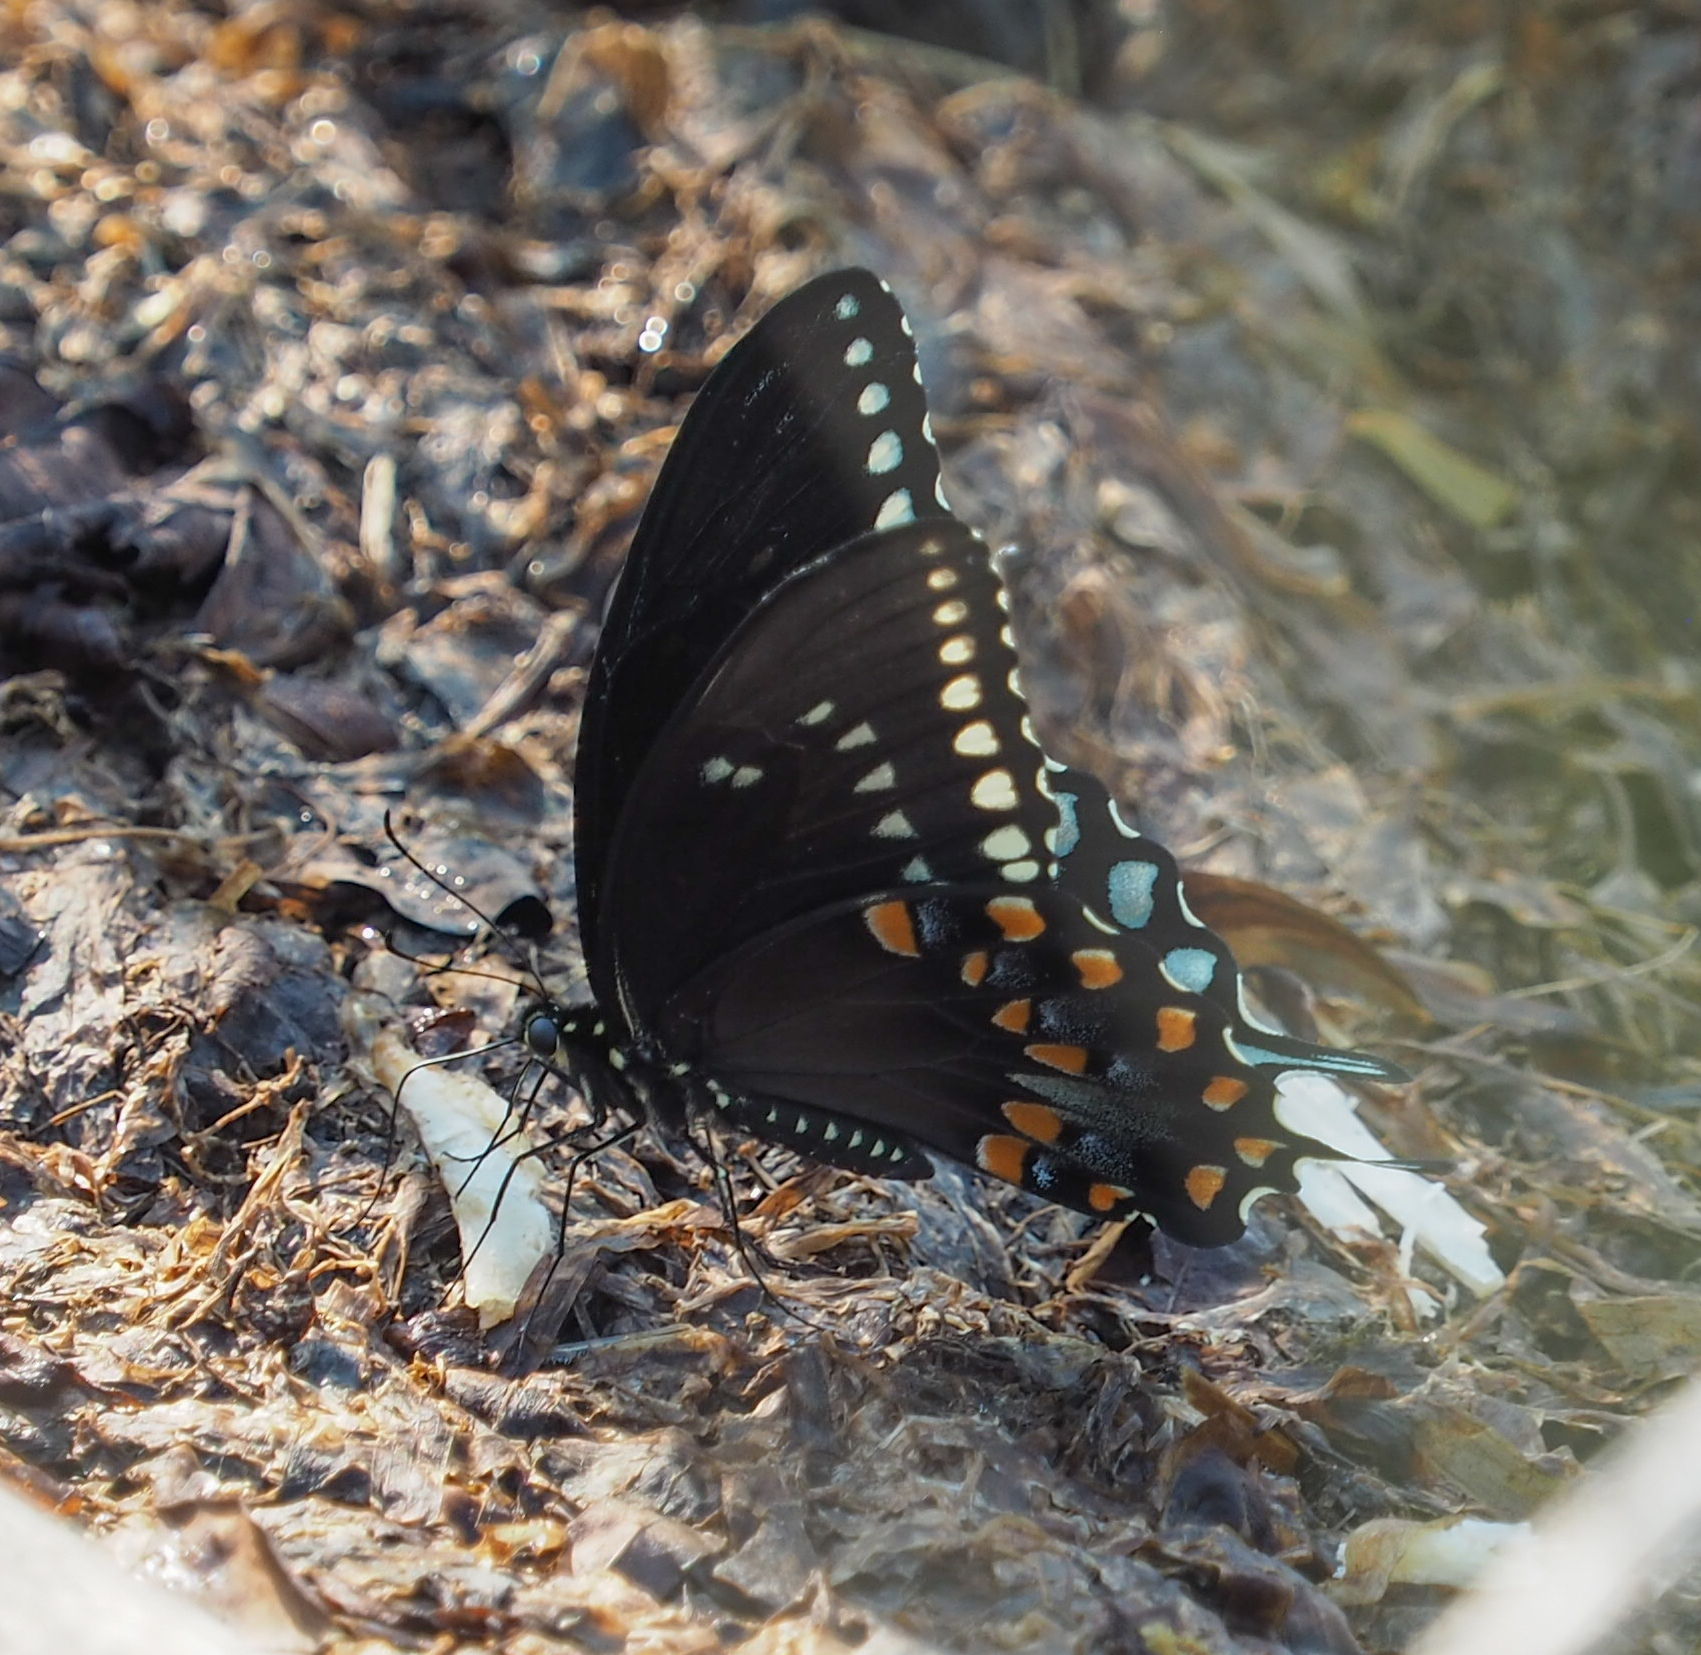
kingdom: Animalia
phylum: Arthropoda
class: Insecta
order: Lepidoptera
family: Papilionidae
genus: Papilio
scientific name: Papilio troilus
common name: Spicebush swallowtail
